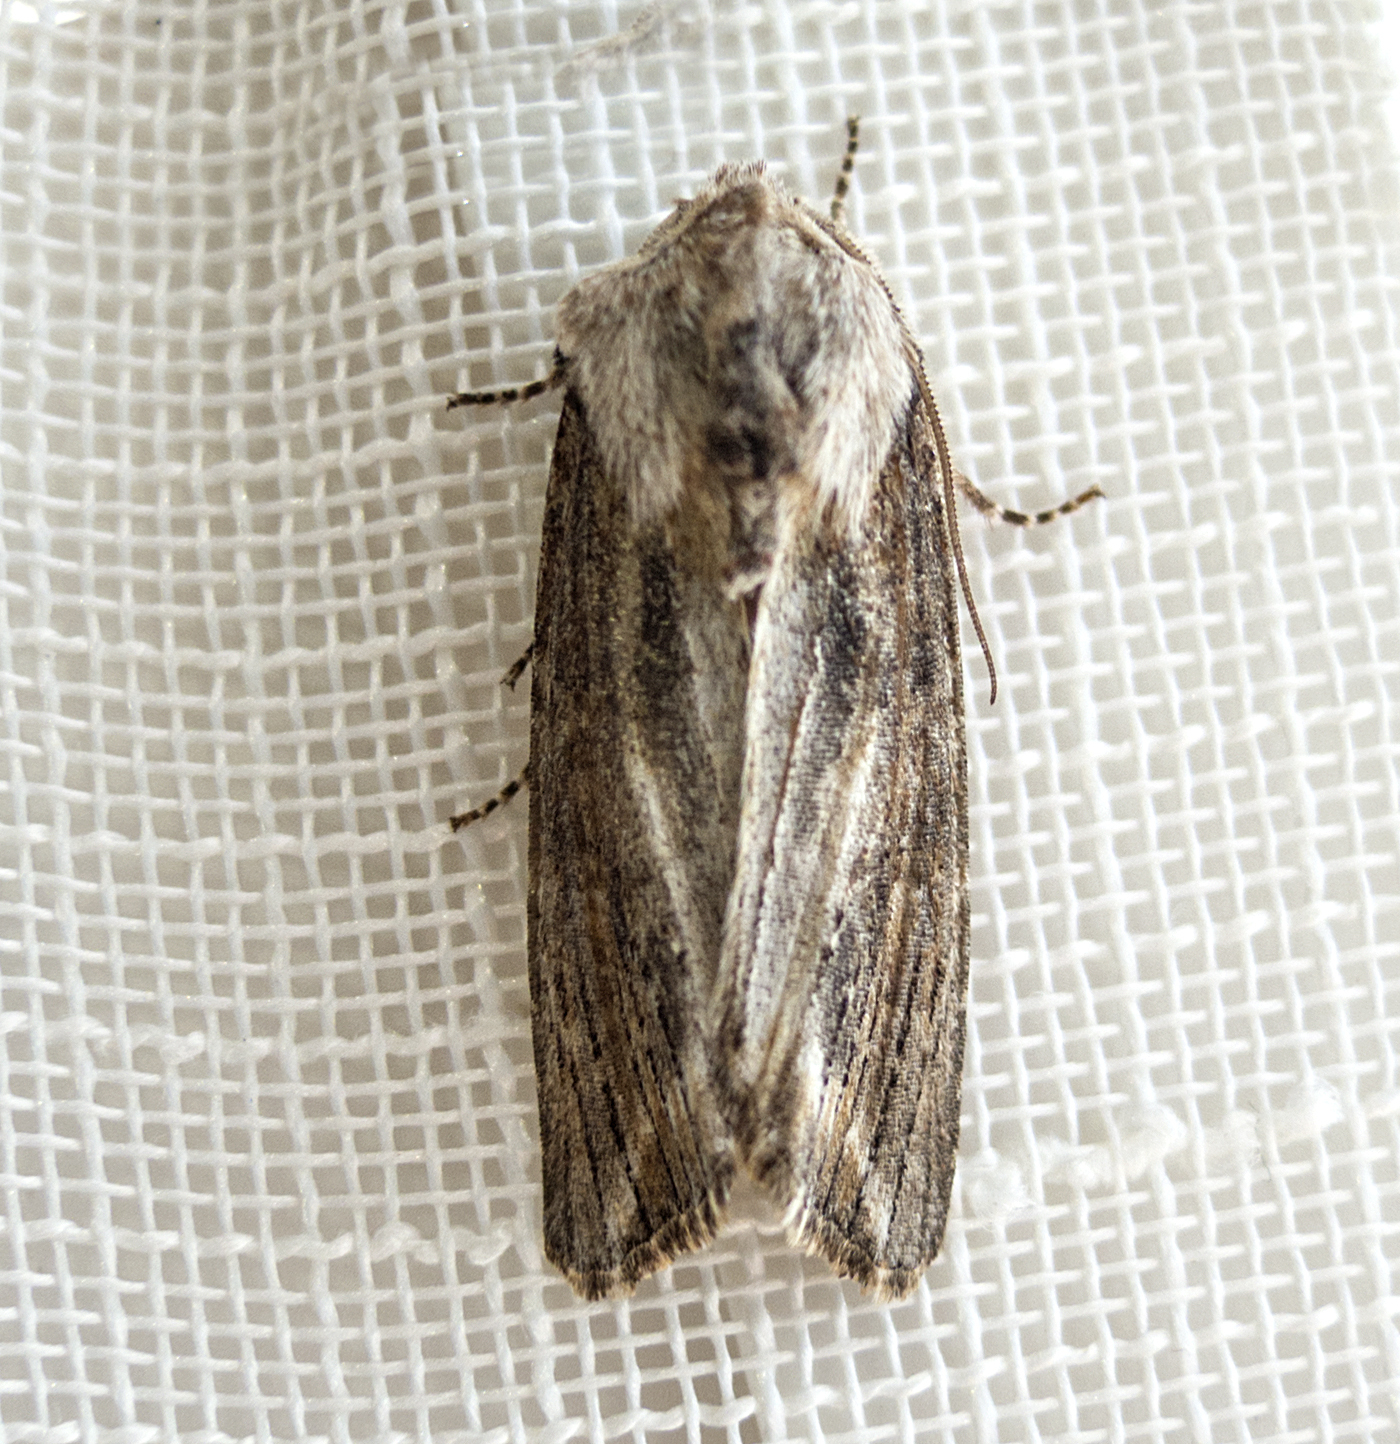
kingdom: Animalia
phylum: Arthropoda
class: Insecta
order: Lepidoptera
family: Noctuidae
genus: Egira
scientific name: Egira conspicillaris
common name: Silver cloud
